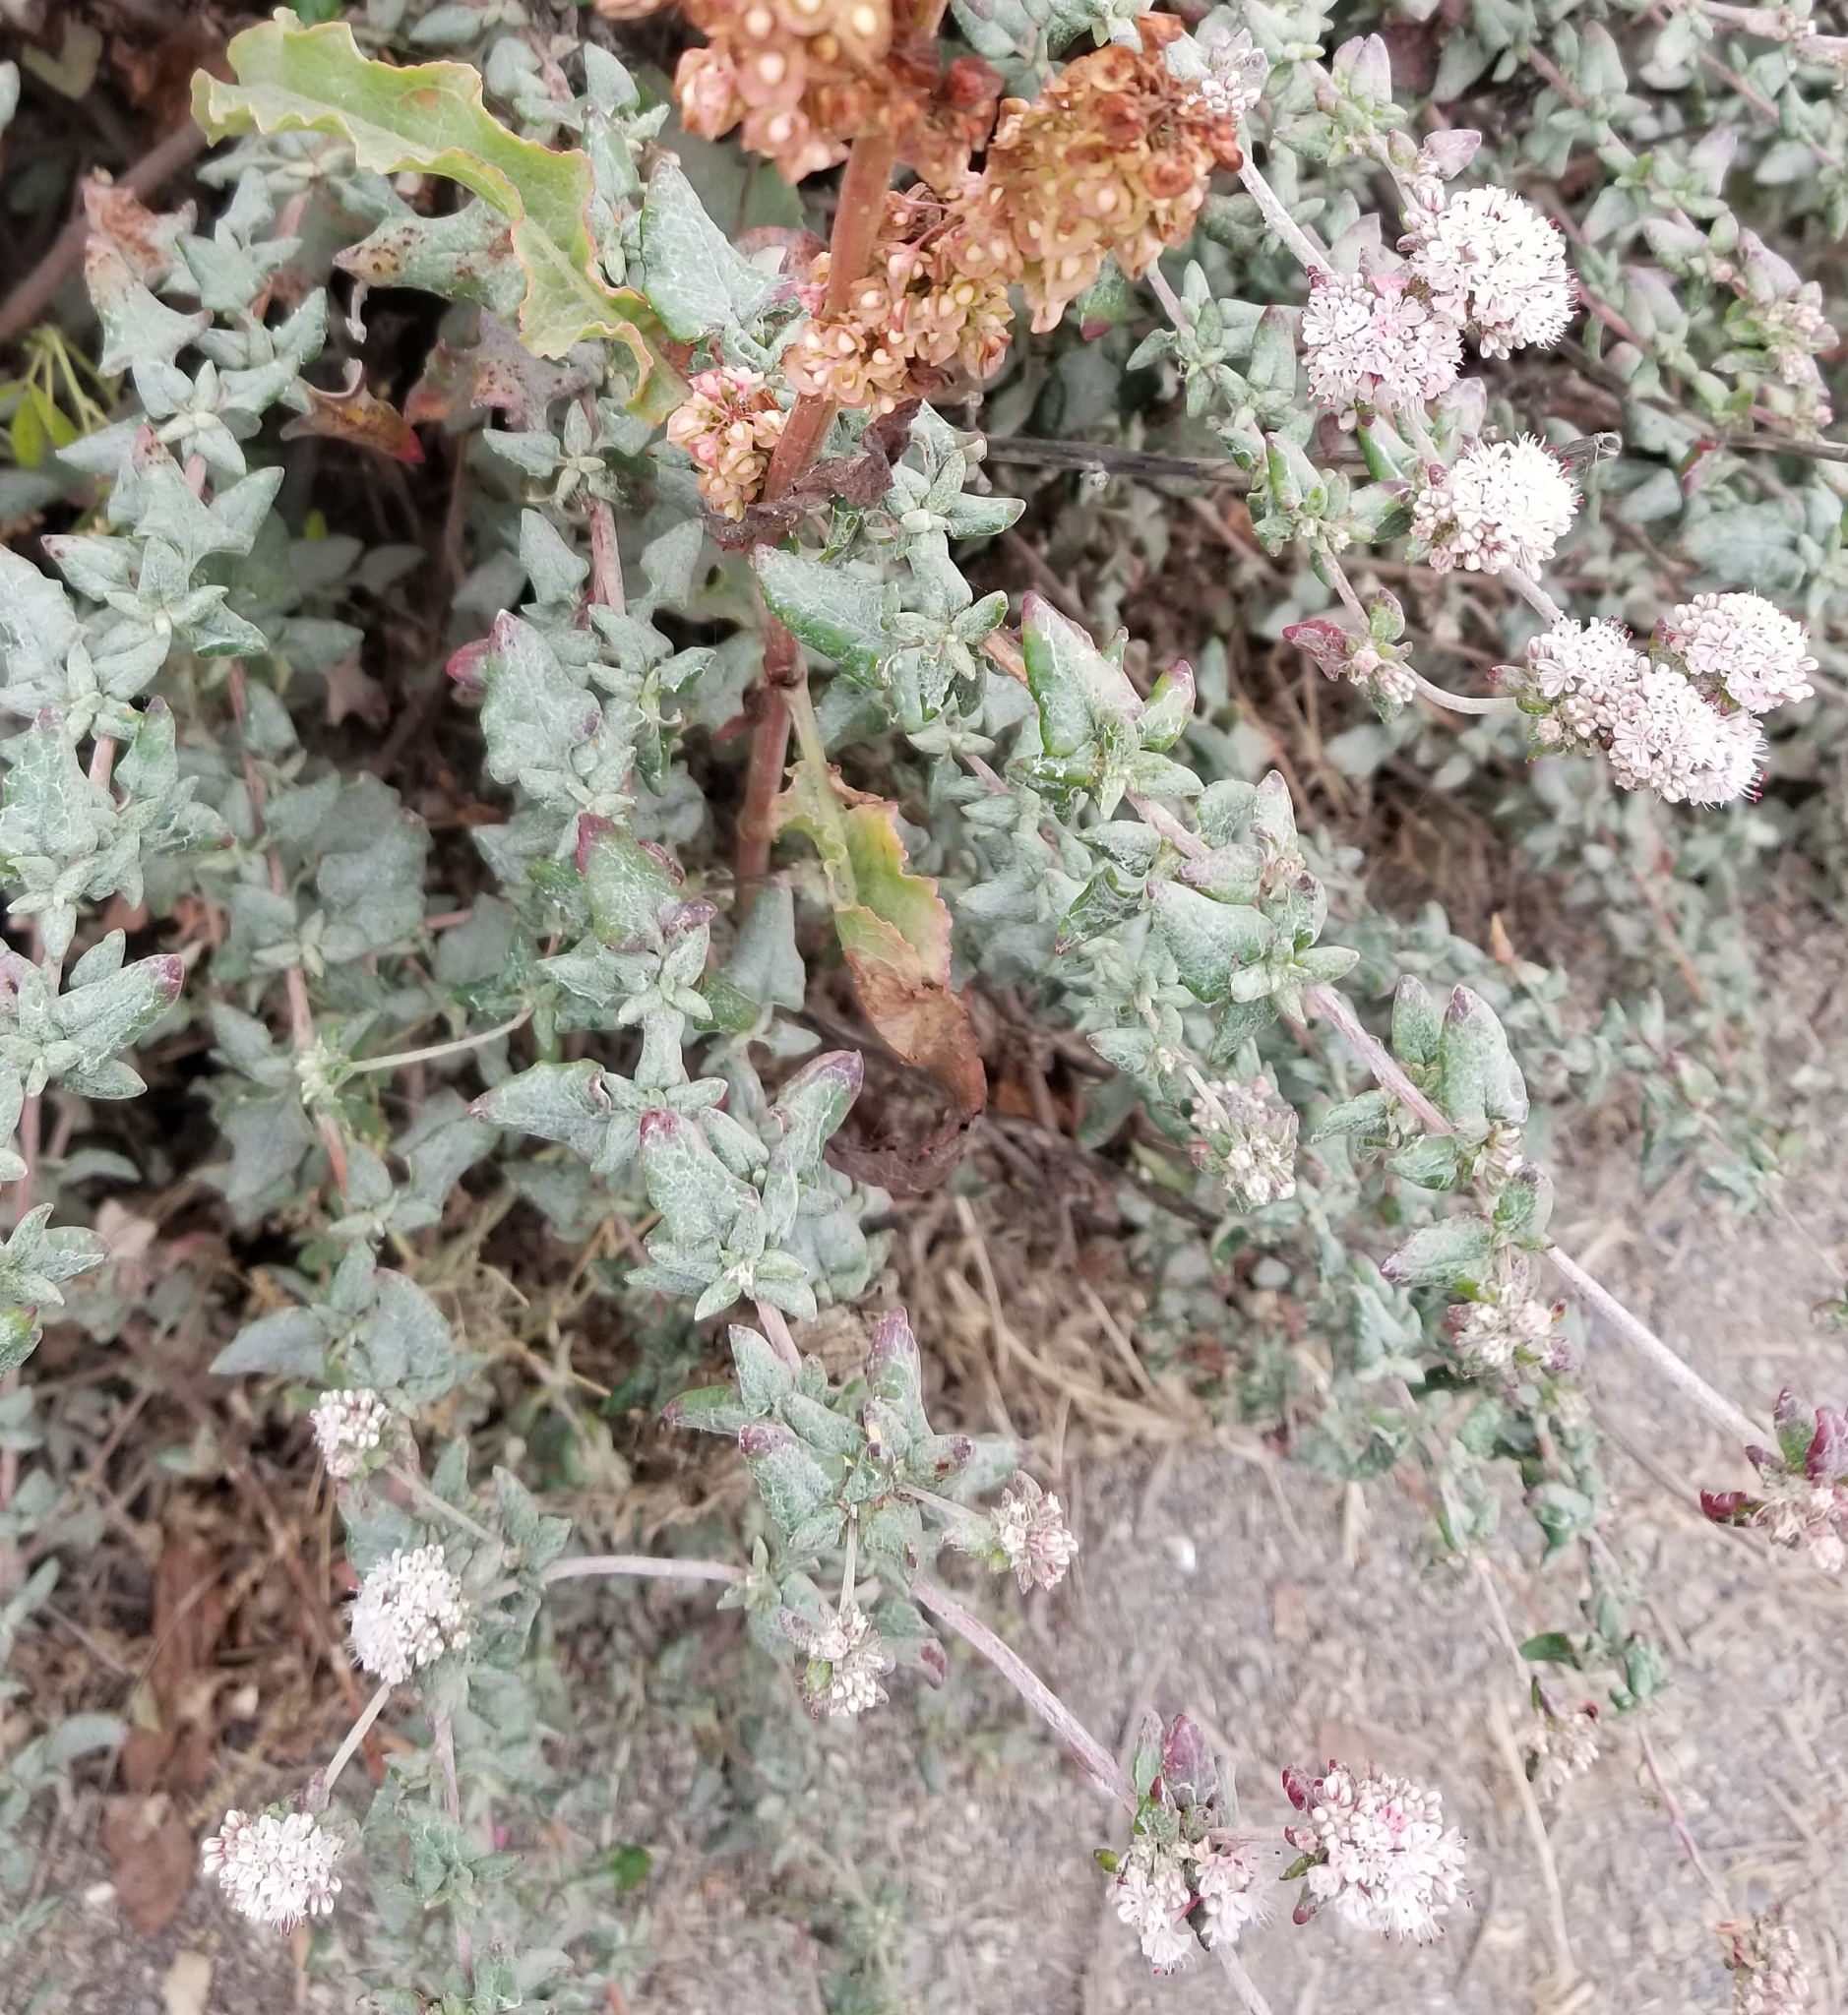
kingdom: Plantae
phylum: Tracheophyta
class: Magnoliopsida
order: Caryophyllales
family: Polygonaceae
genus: Eriogonum
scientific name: Eriogonum parvifolium
